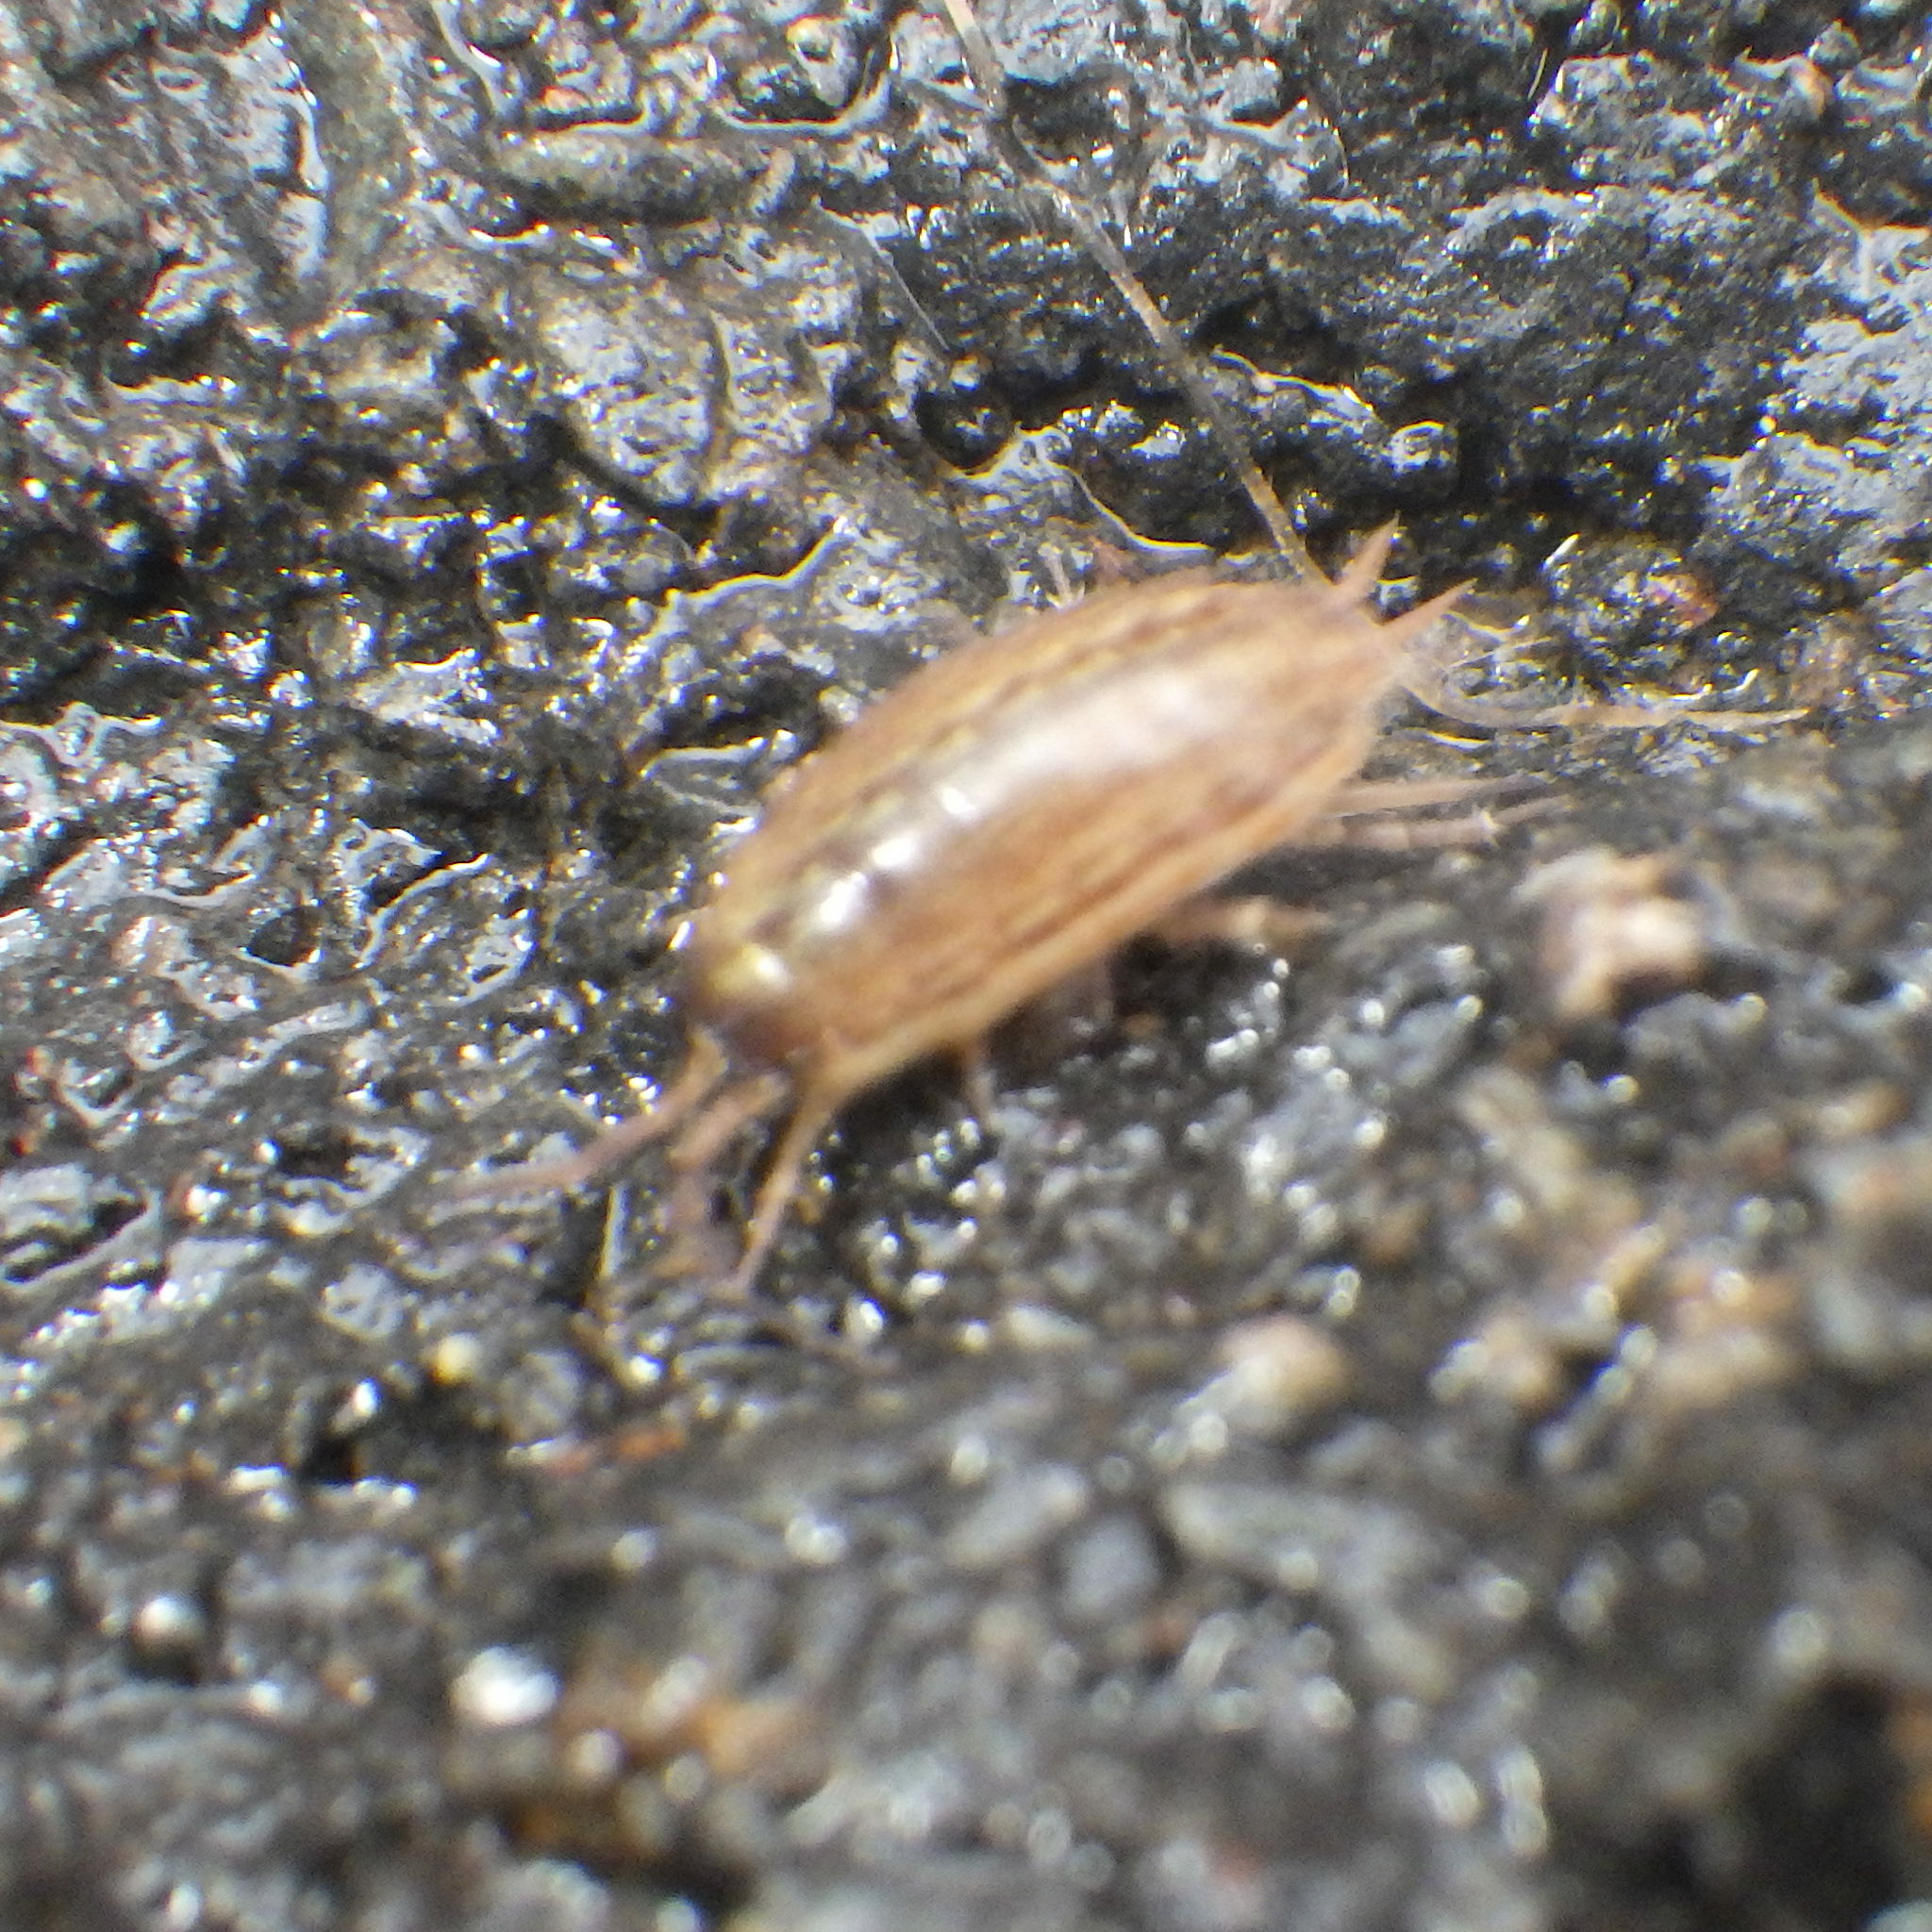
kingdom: Animalia
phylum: Arthropoda
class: Malacostraca
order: Isopoda
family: Philosciidae
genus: Philoscia
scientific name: Philoscia muscorum
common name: Common striped woodlouse
